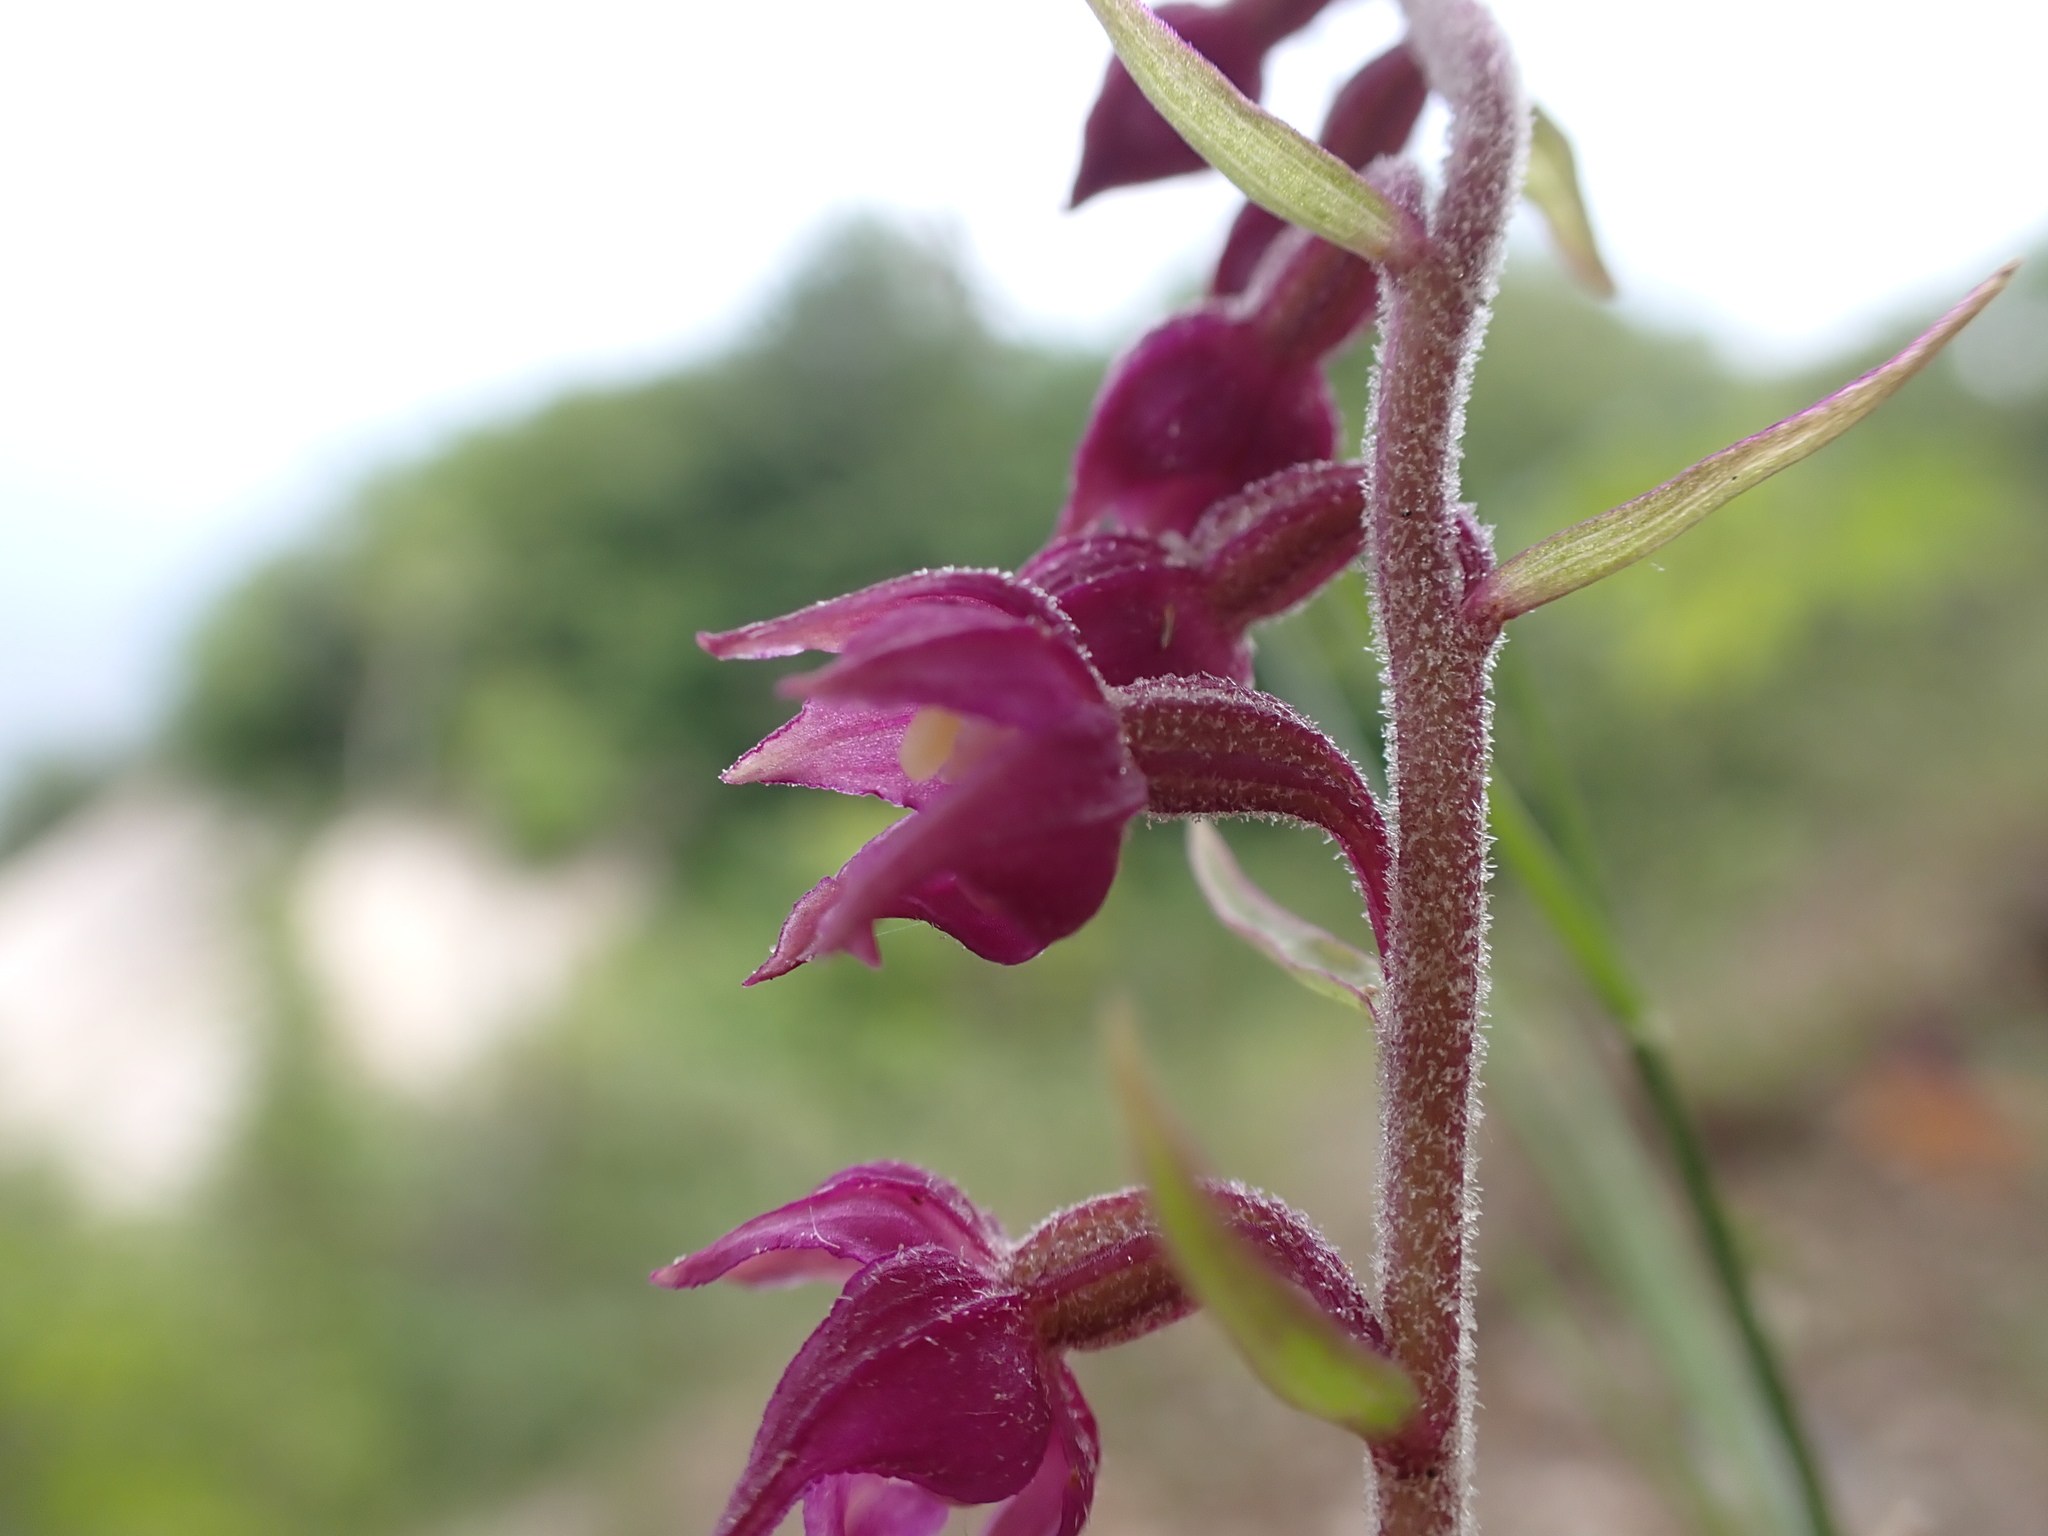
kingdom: Plantae
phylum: Tracheophyta
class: Liliopsida
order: Asparagales
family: Orchidaceae
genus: Epipactis
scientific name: Epipactis atrorubens
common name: Dark-red helleborine
